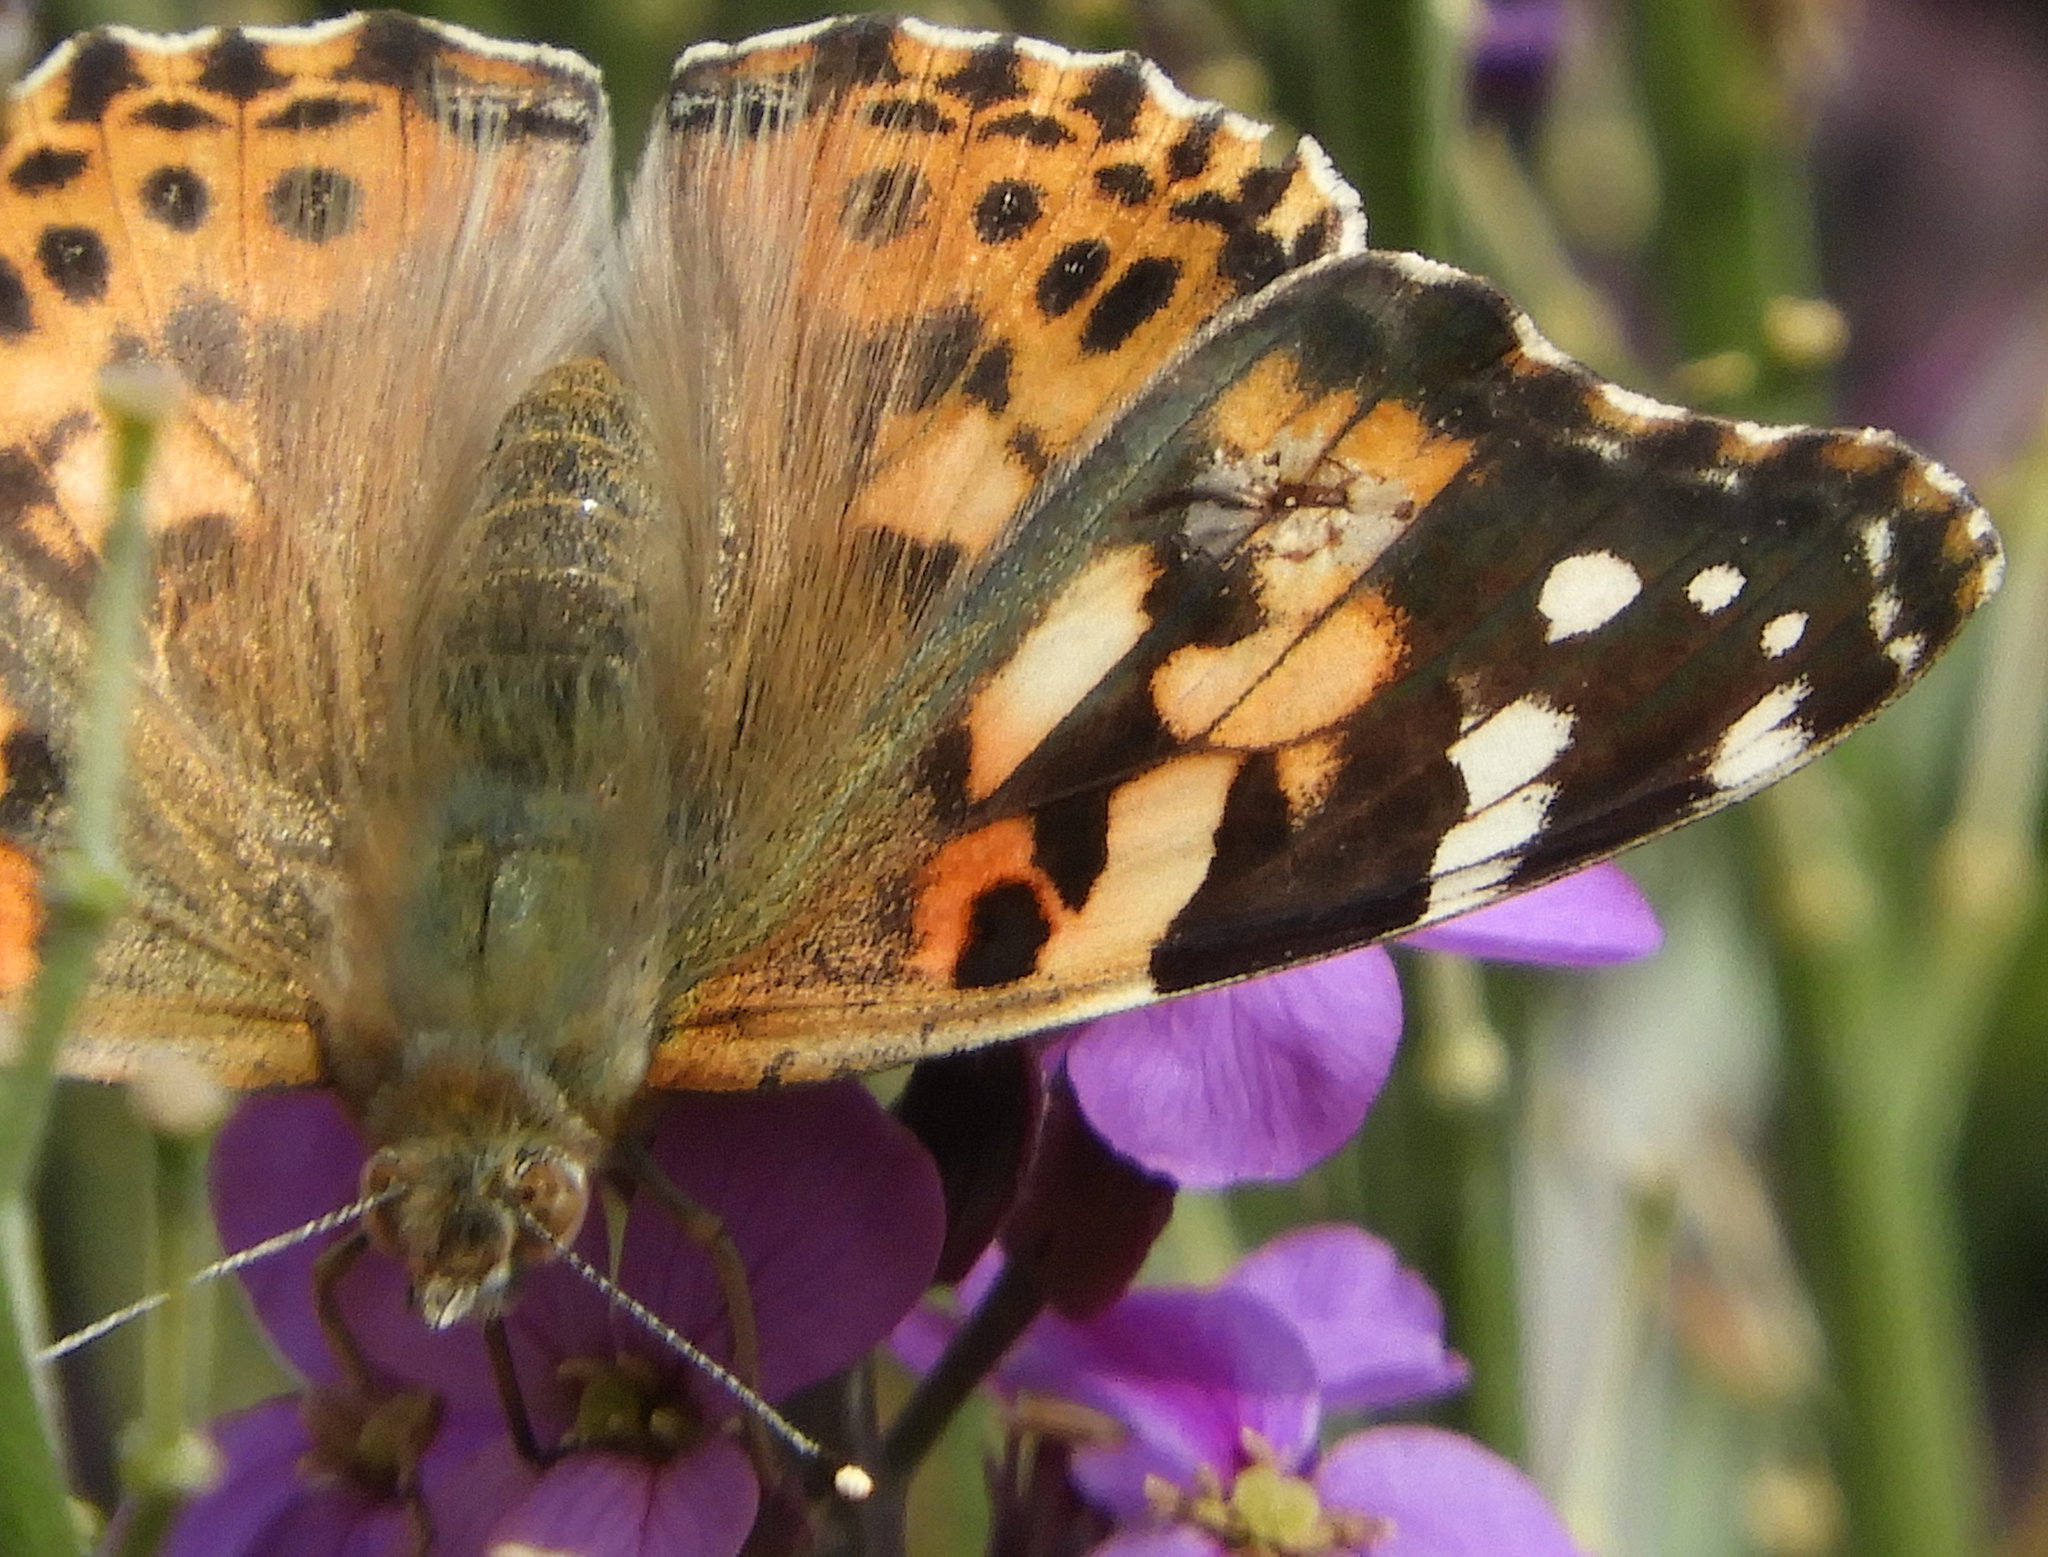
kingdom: Animalia
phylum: Arthropoda
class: Insecta
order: Lepidoptera
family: Nymphalidae
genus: Vanessa
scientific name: Vanessa cardui
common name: Painted lady
